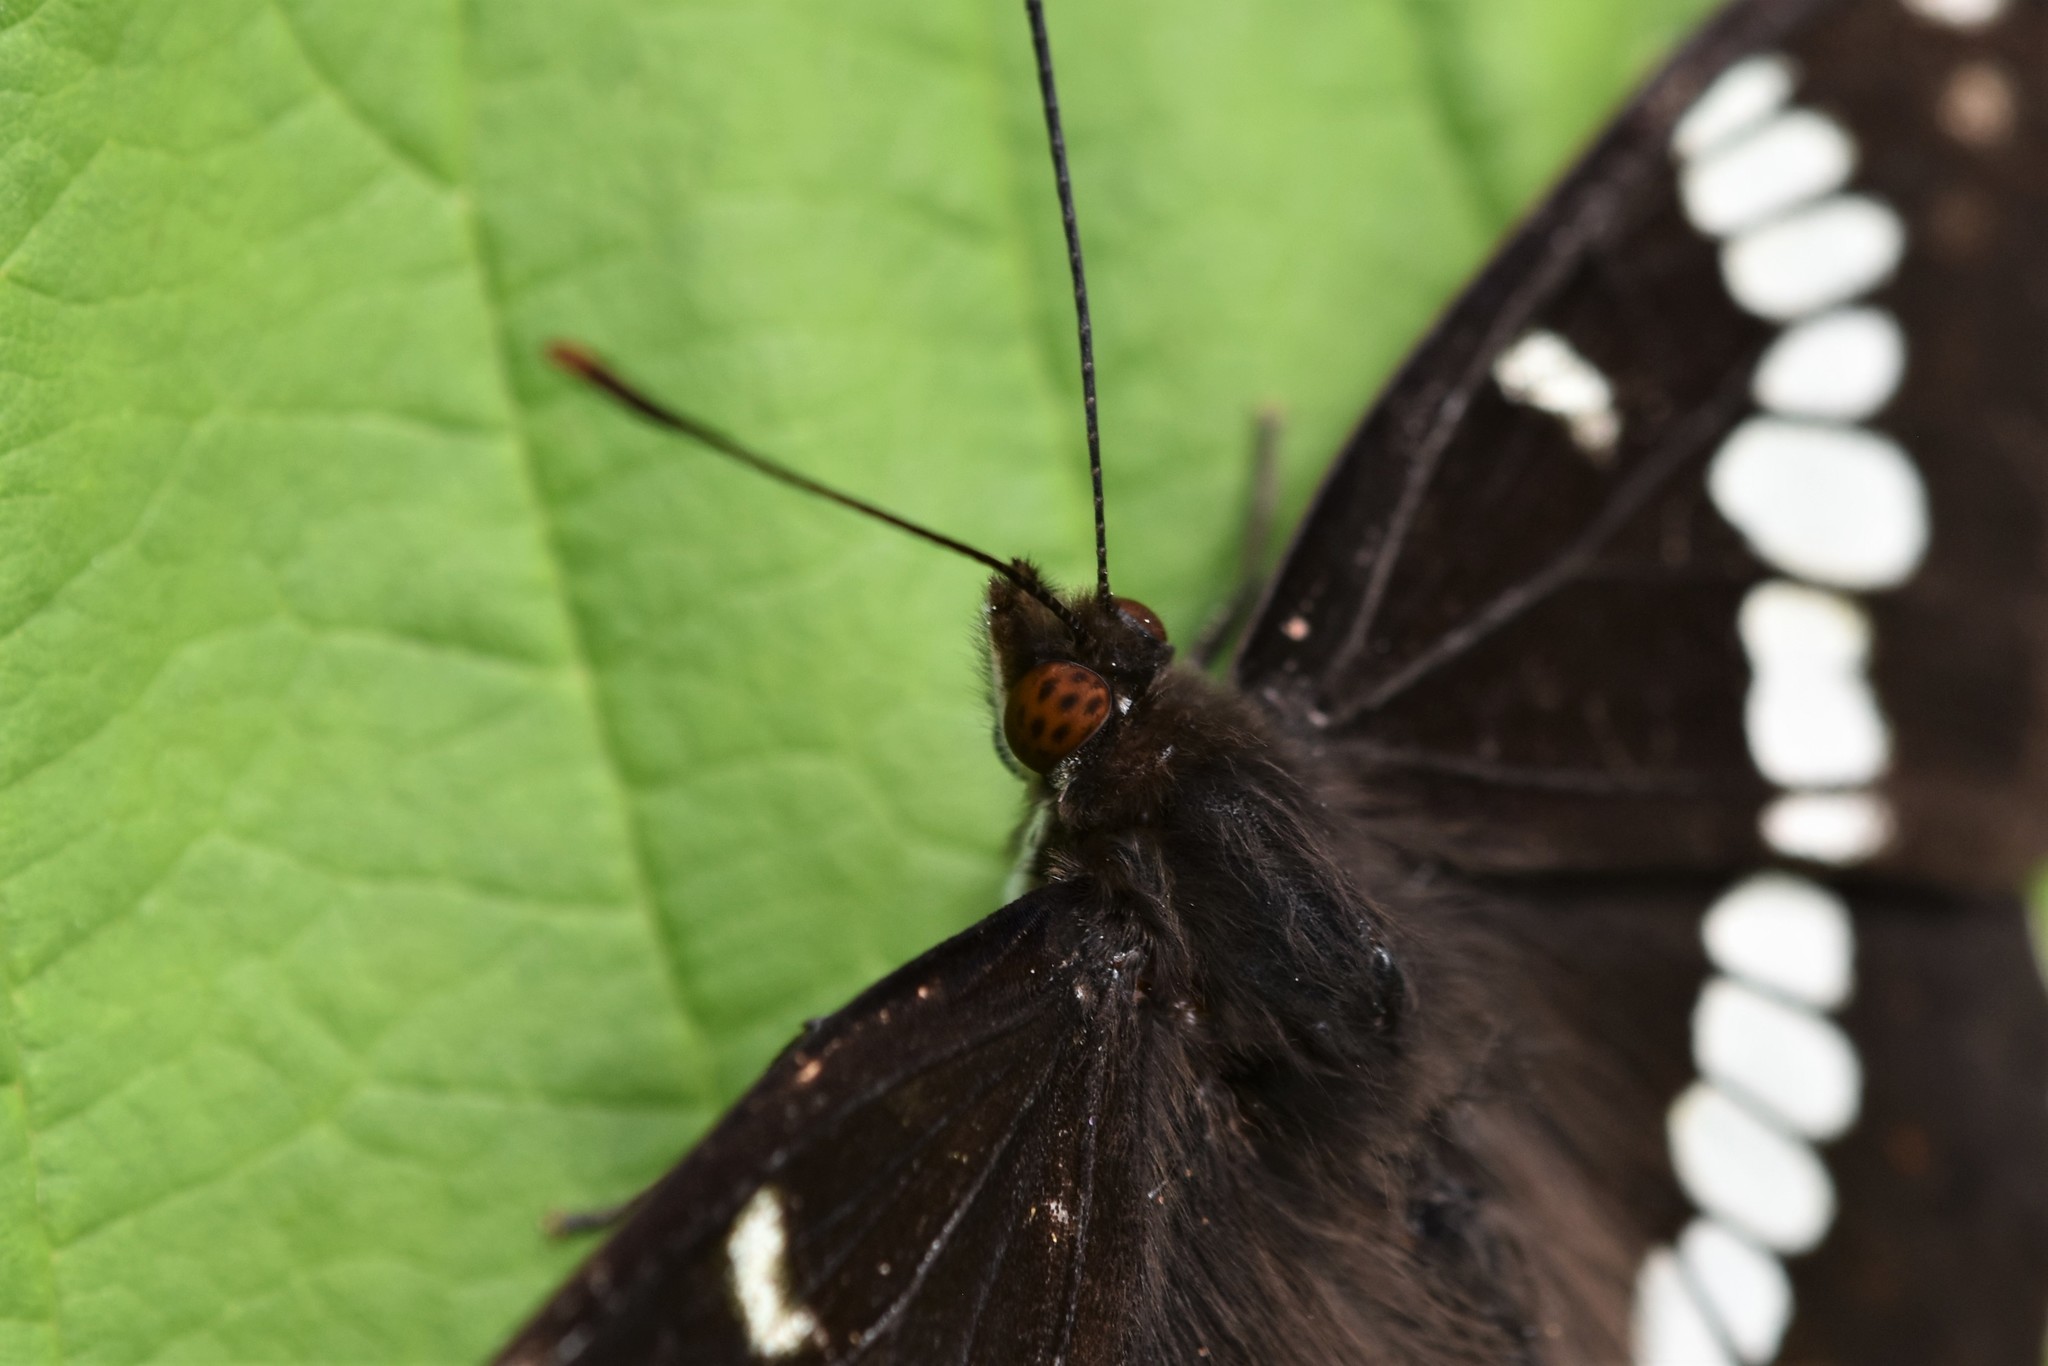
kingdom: Animalia
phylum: Arthropoda
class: Insecta
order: Lepidoptera
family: Nymphalidae
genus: Limenitis
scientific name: Limenitis lorquini
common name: Lorquin's admiral
